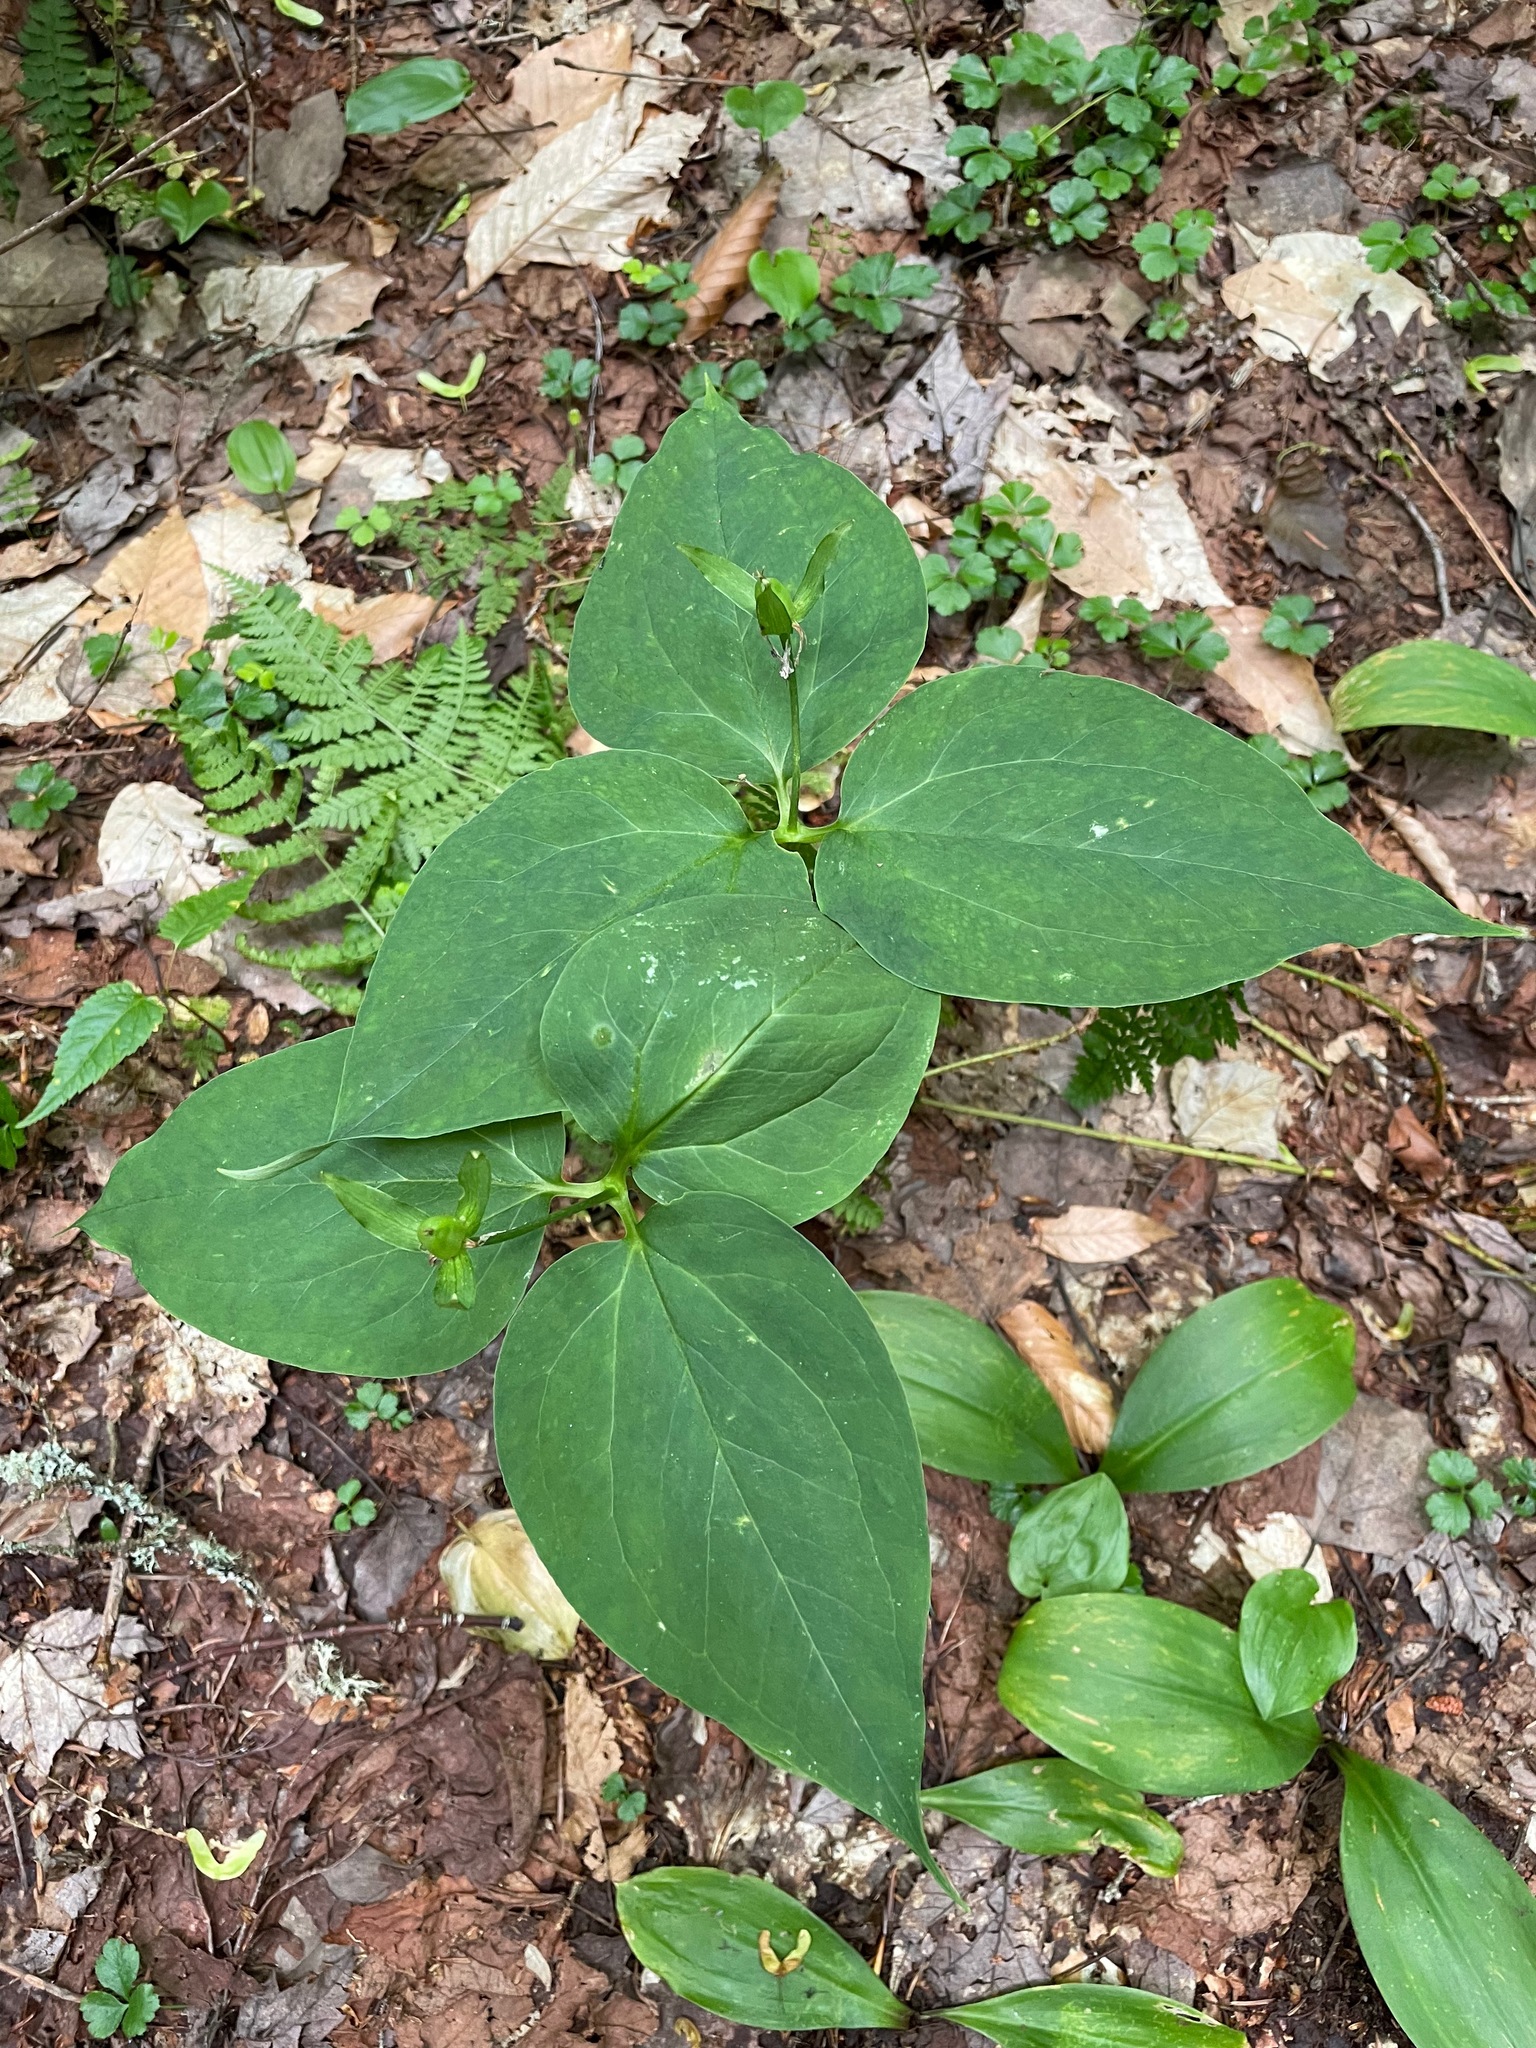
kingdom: Plantae
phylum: Tracheophyta
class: Liliopsida
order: Liliales
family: Melanthiaceae
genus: Trillium
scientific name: Trillium undulatum
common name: Paint trillium
